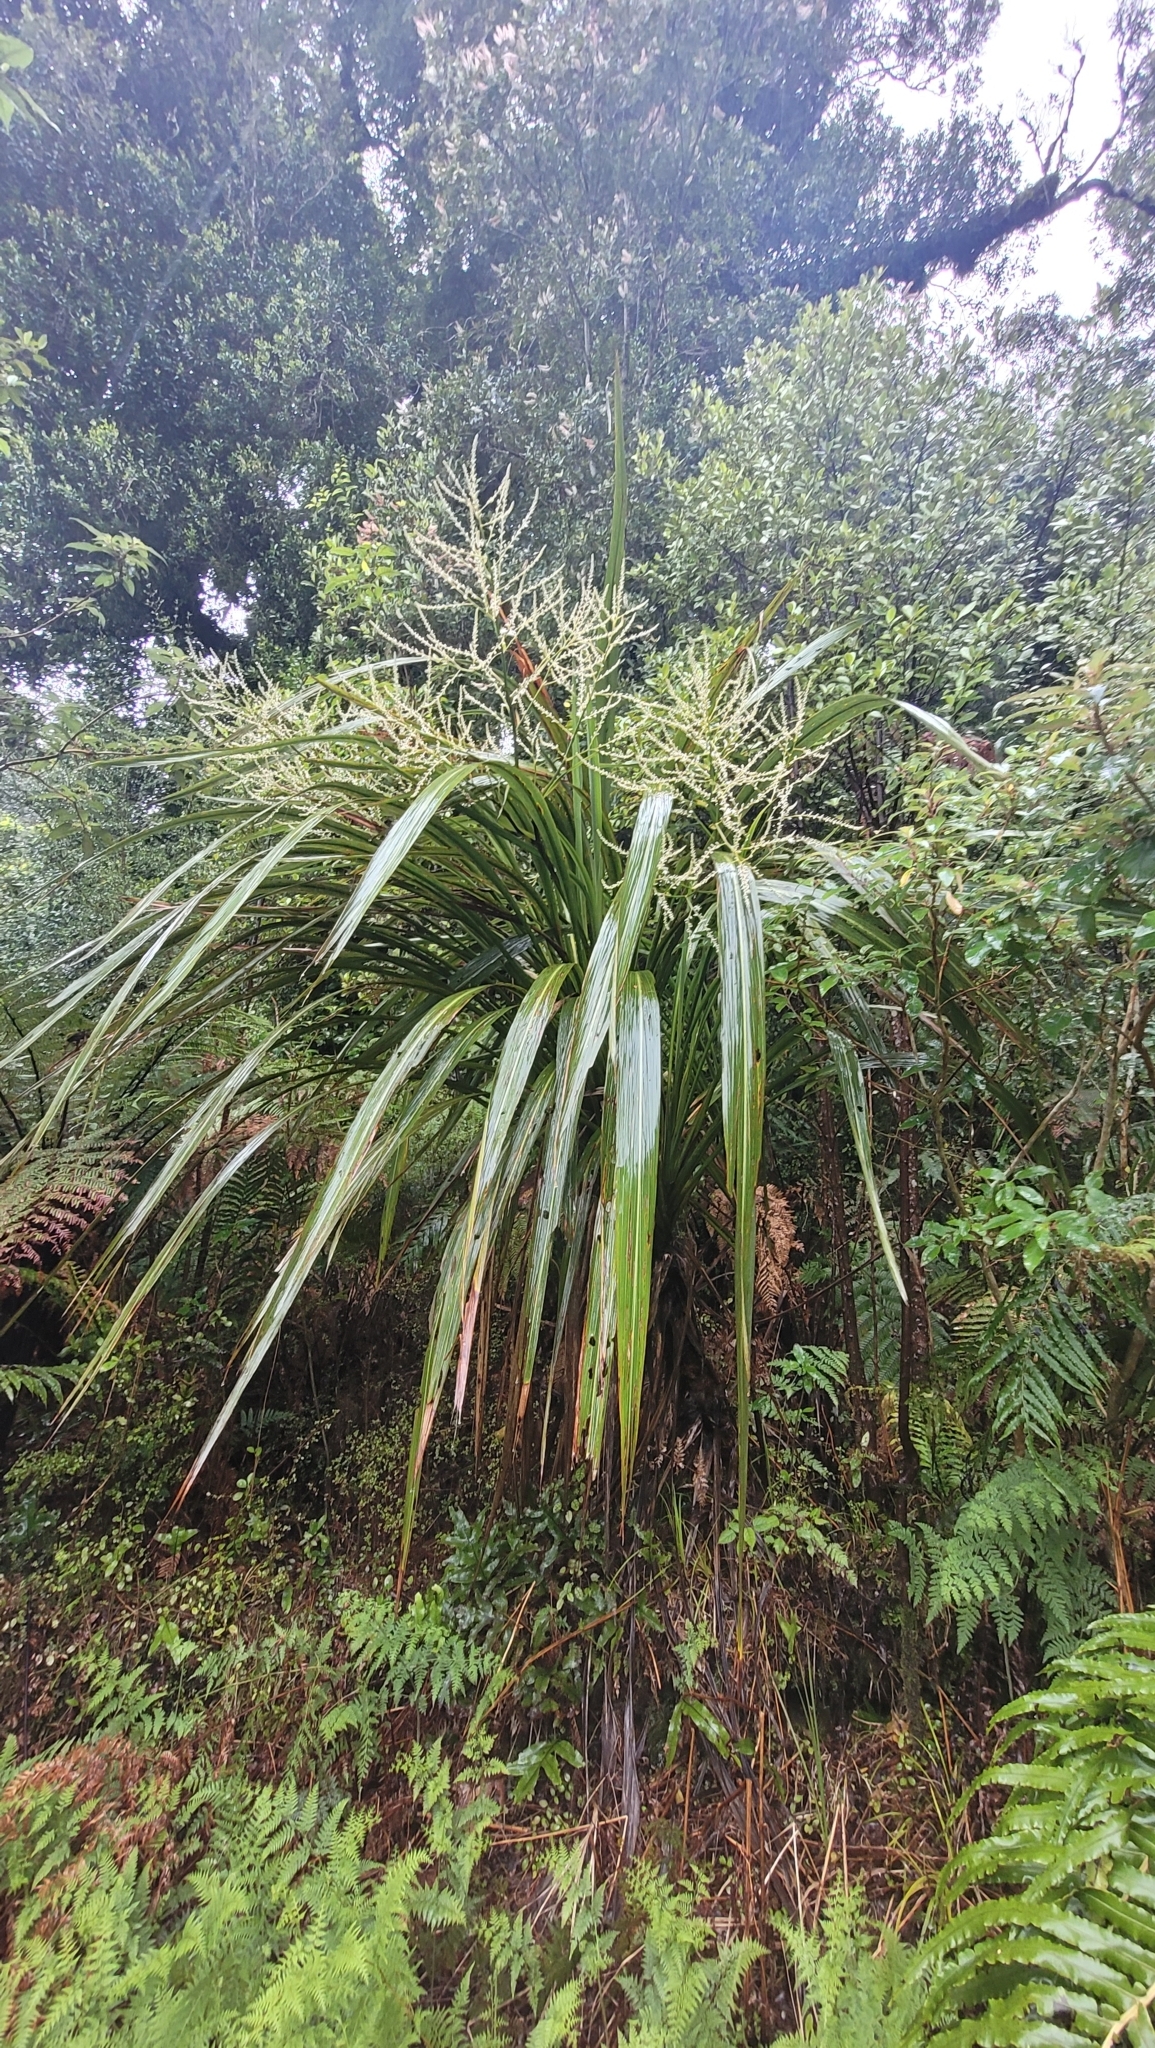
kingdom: Plantae
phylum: Tracheophyta
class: Liliopsida
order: Asparagales
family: Asparagaceae
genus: Cordyline
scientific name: Cordyline banksii
